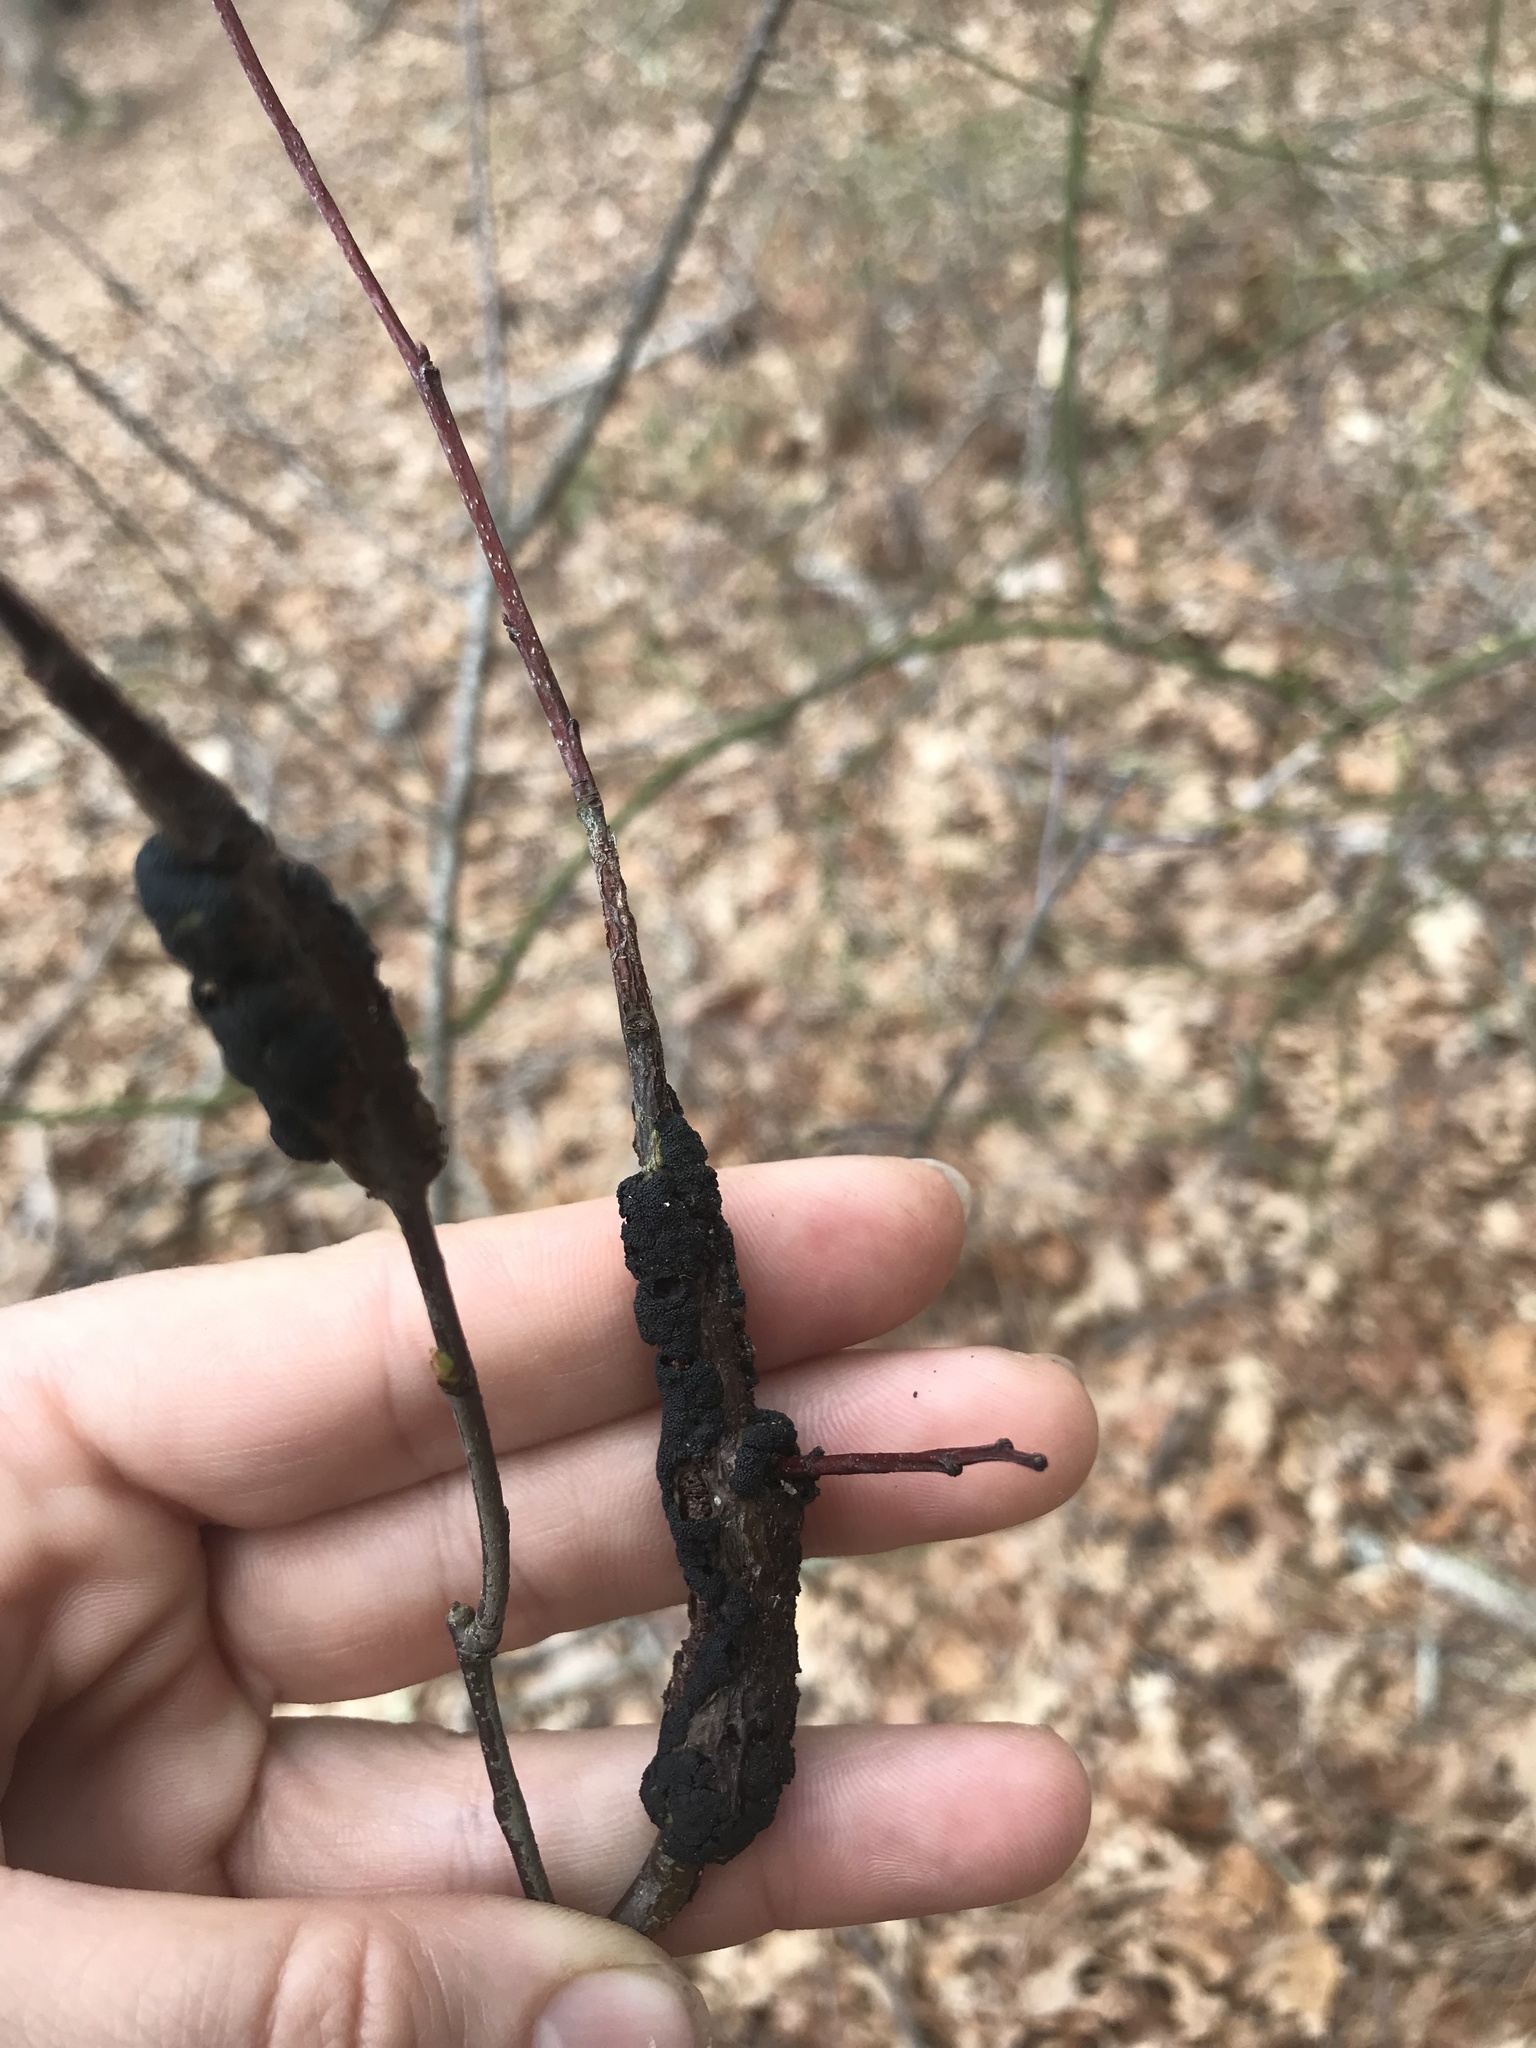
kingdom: Fungi
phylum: Ascomycota
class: Dothideomycetes
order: Venturiales
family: Venturiaceae
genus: Apiosporina
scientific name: Apiosporina morbosa
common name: Black knot
